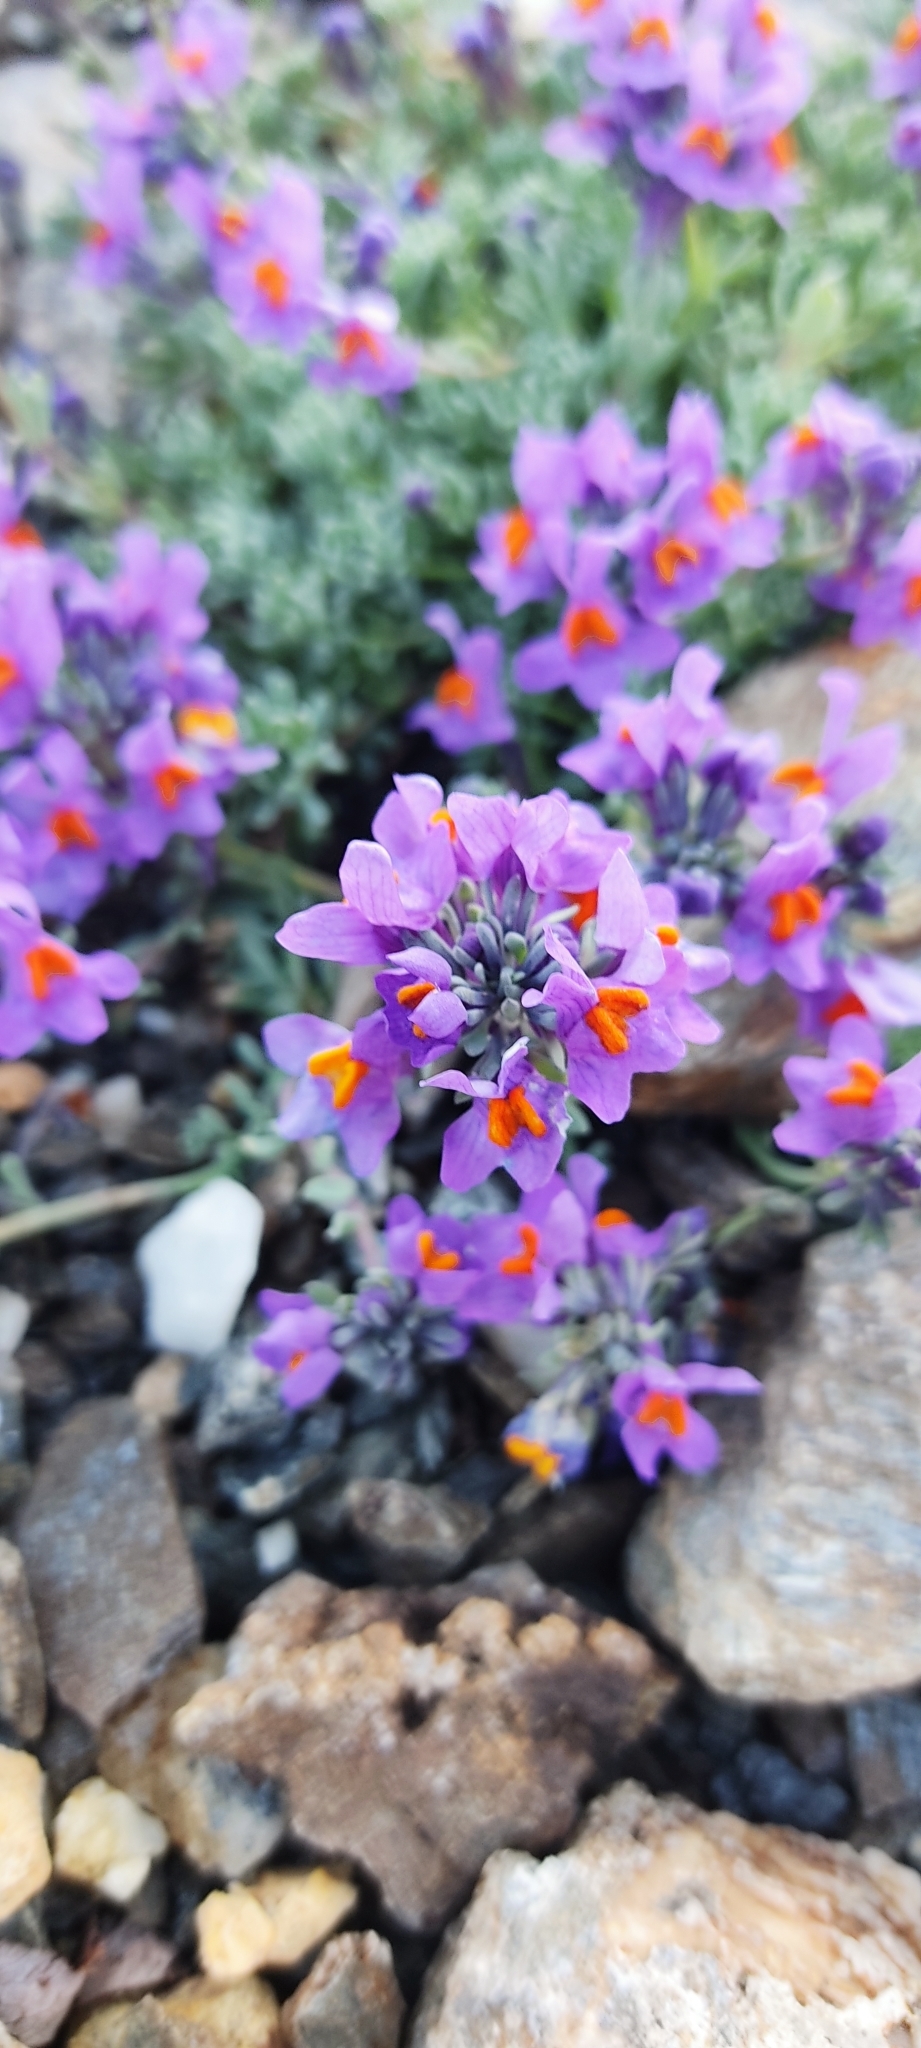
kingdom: Plantae
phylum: Tracheophyta
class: Magnoliopsida
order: Lamiales
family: Plantaginaceae
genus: Linaria
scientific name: Linaria alpina
